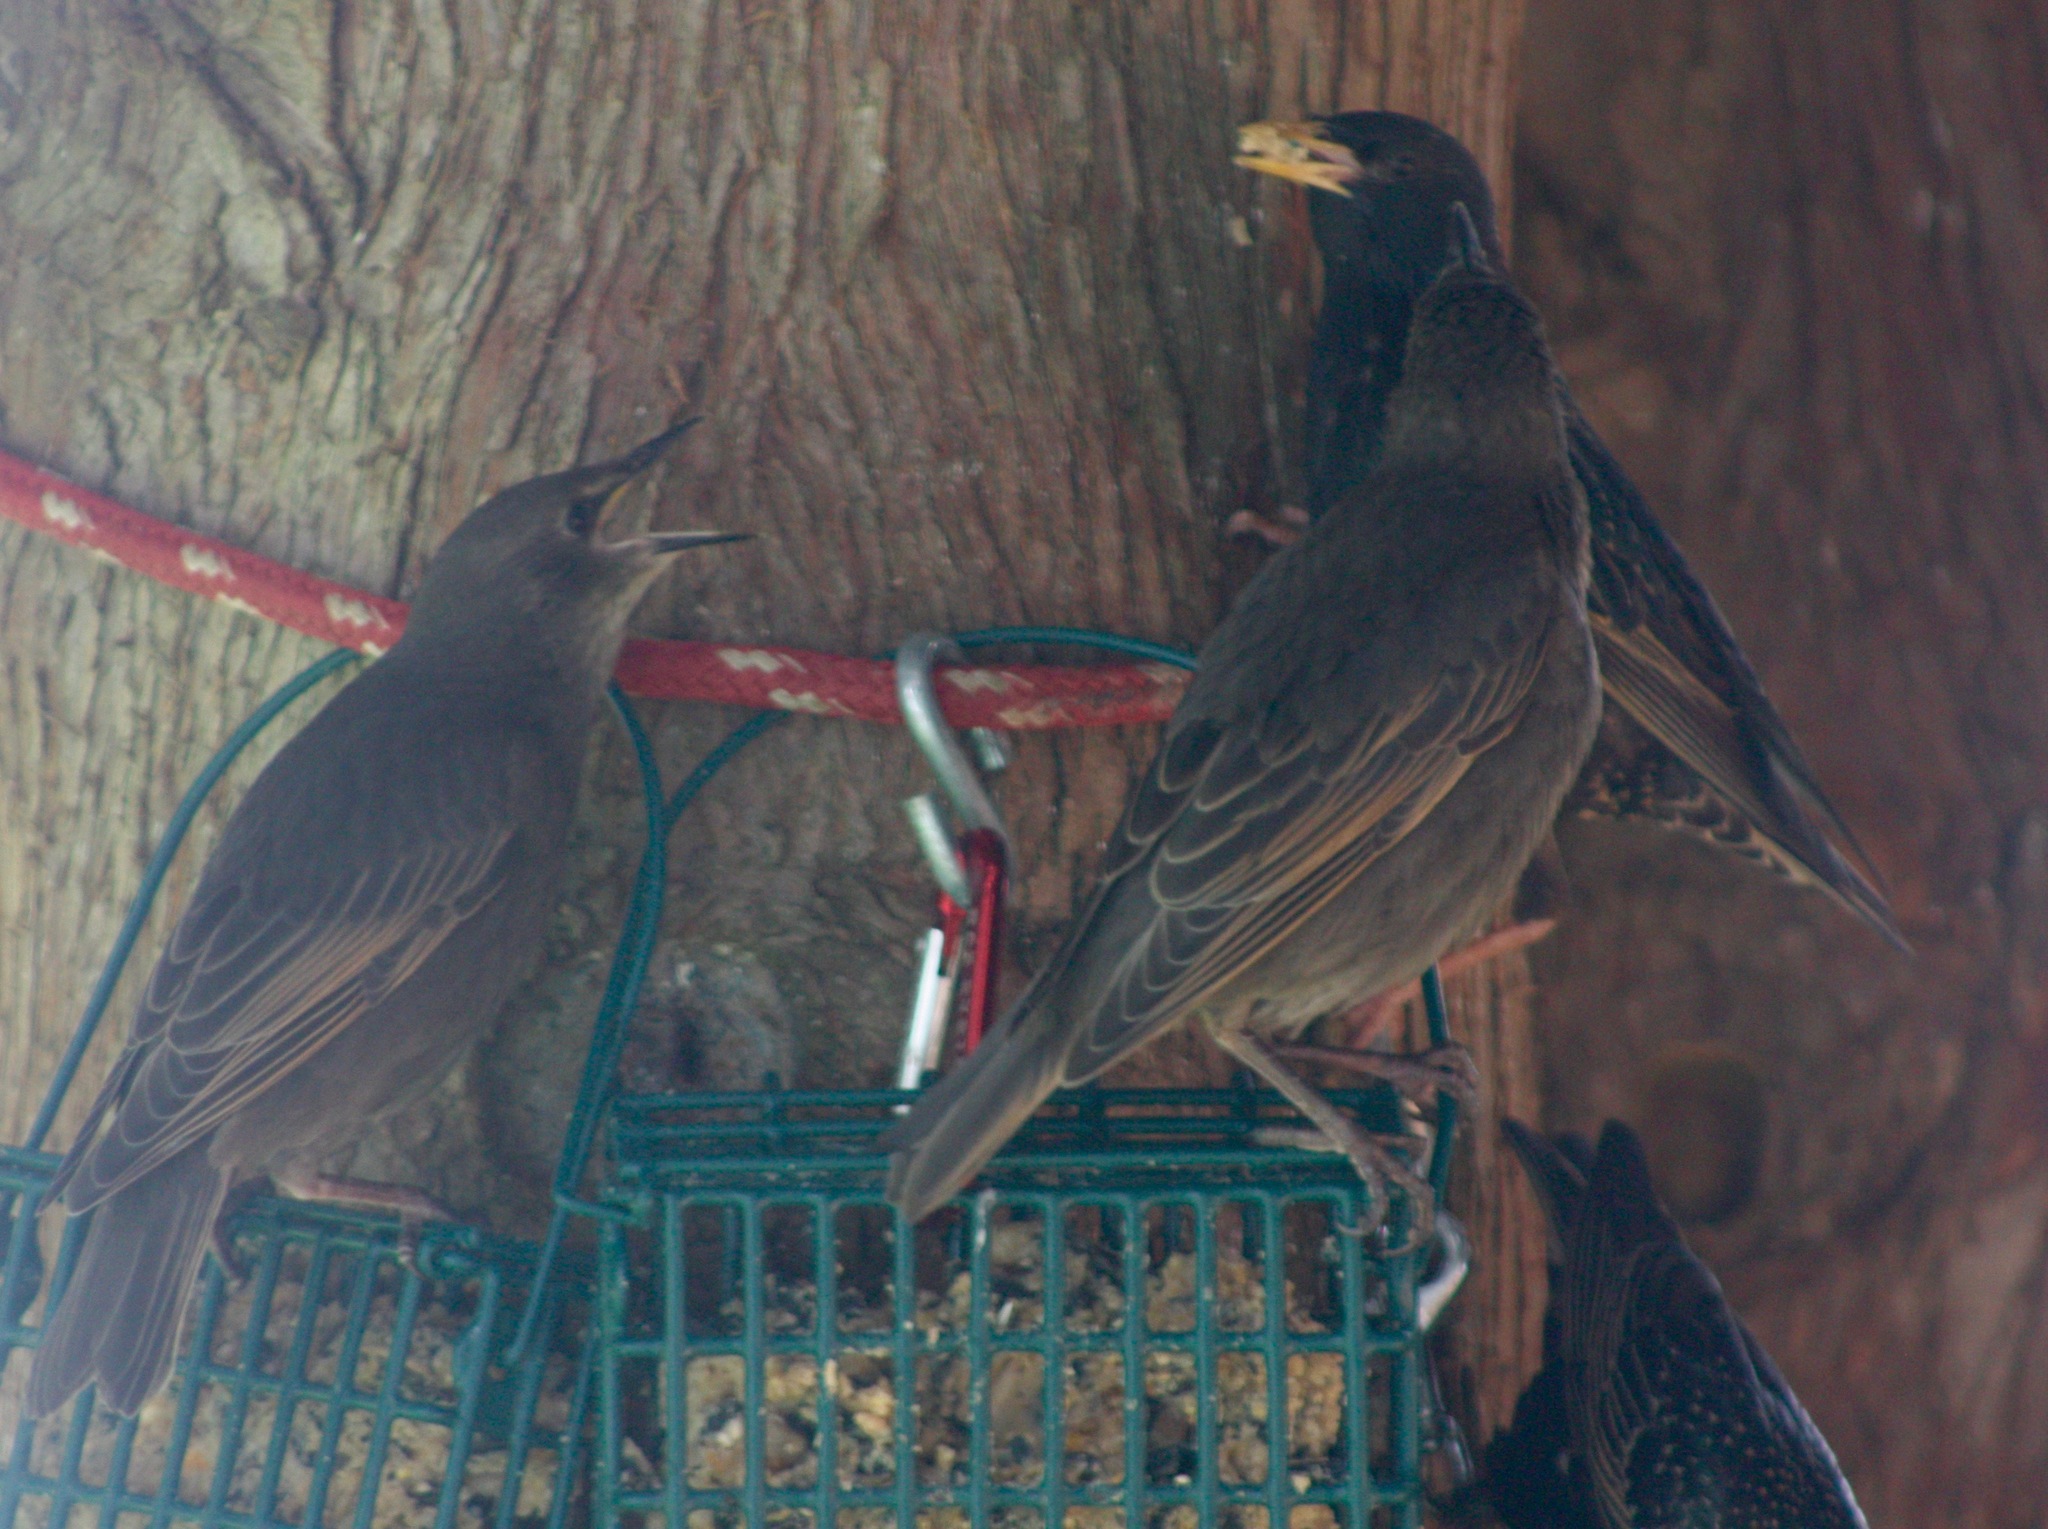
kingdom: Animalia
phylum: Chordata
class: Aves
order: Passeriformes
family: Sturnidae
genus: Sturnus
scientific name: Sturnus vulgaris
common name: Common starling
